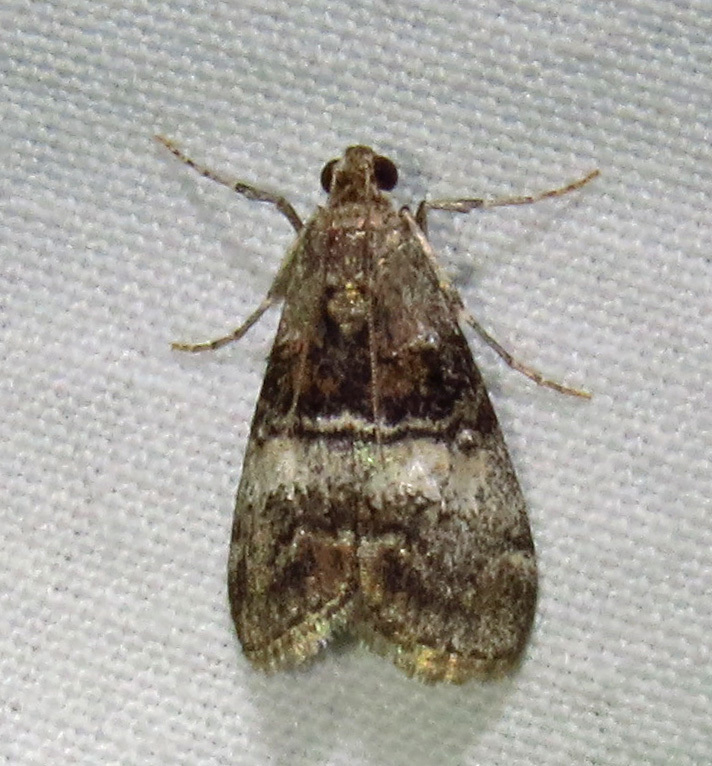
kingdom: Animalia
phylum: Arthropoda
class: Insecta
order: Lepidoptera
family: Pyralidae
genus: Pococera
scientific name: Pococera asperatella
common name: Maple webworm moth
